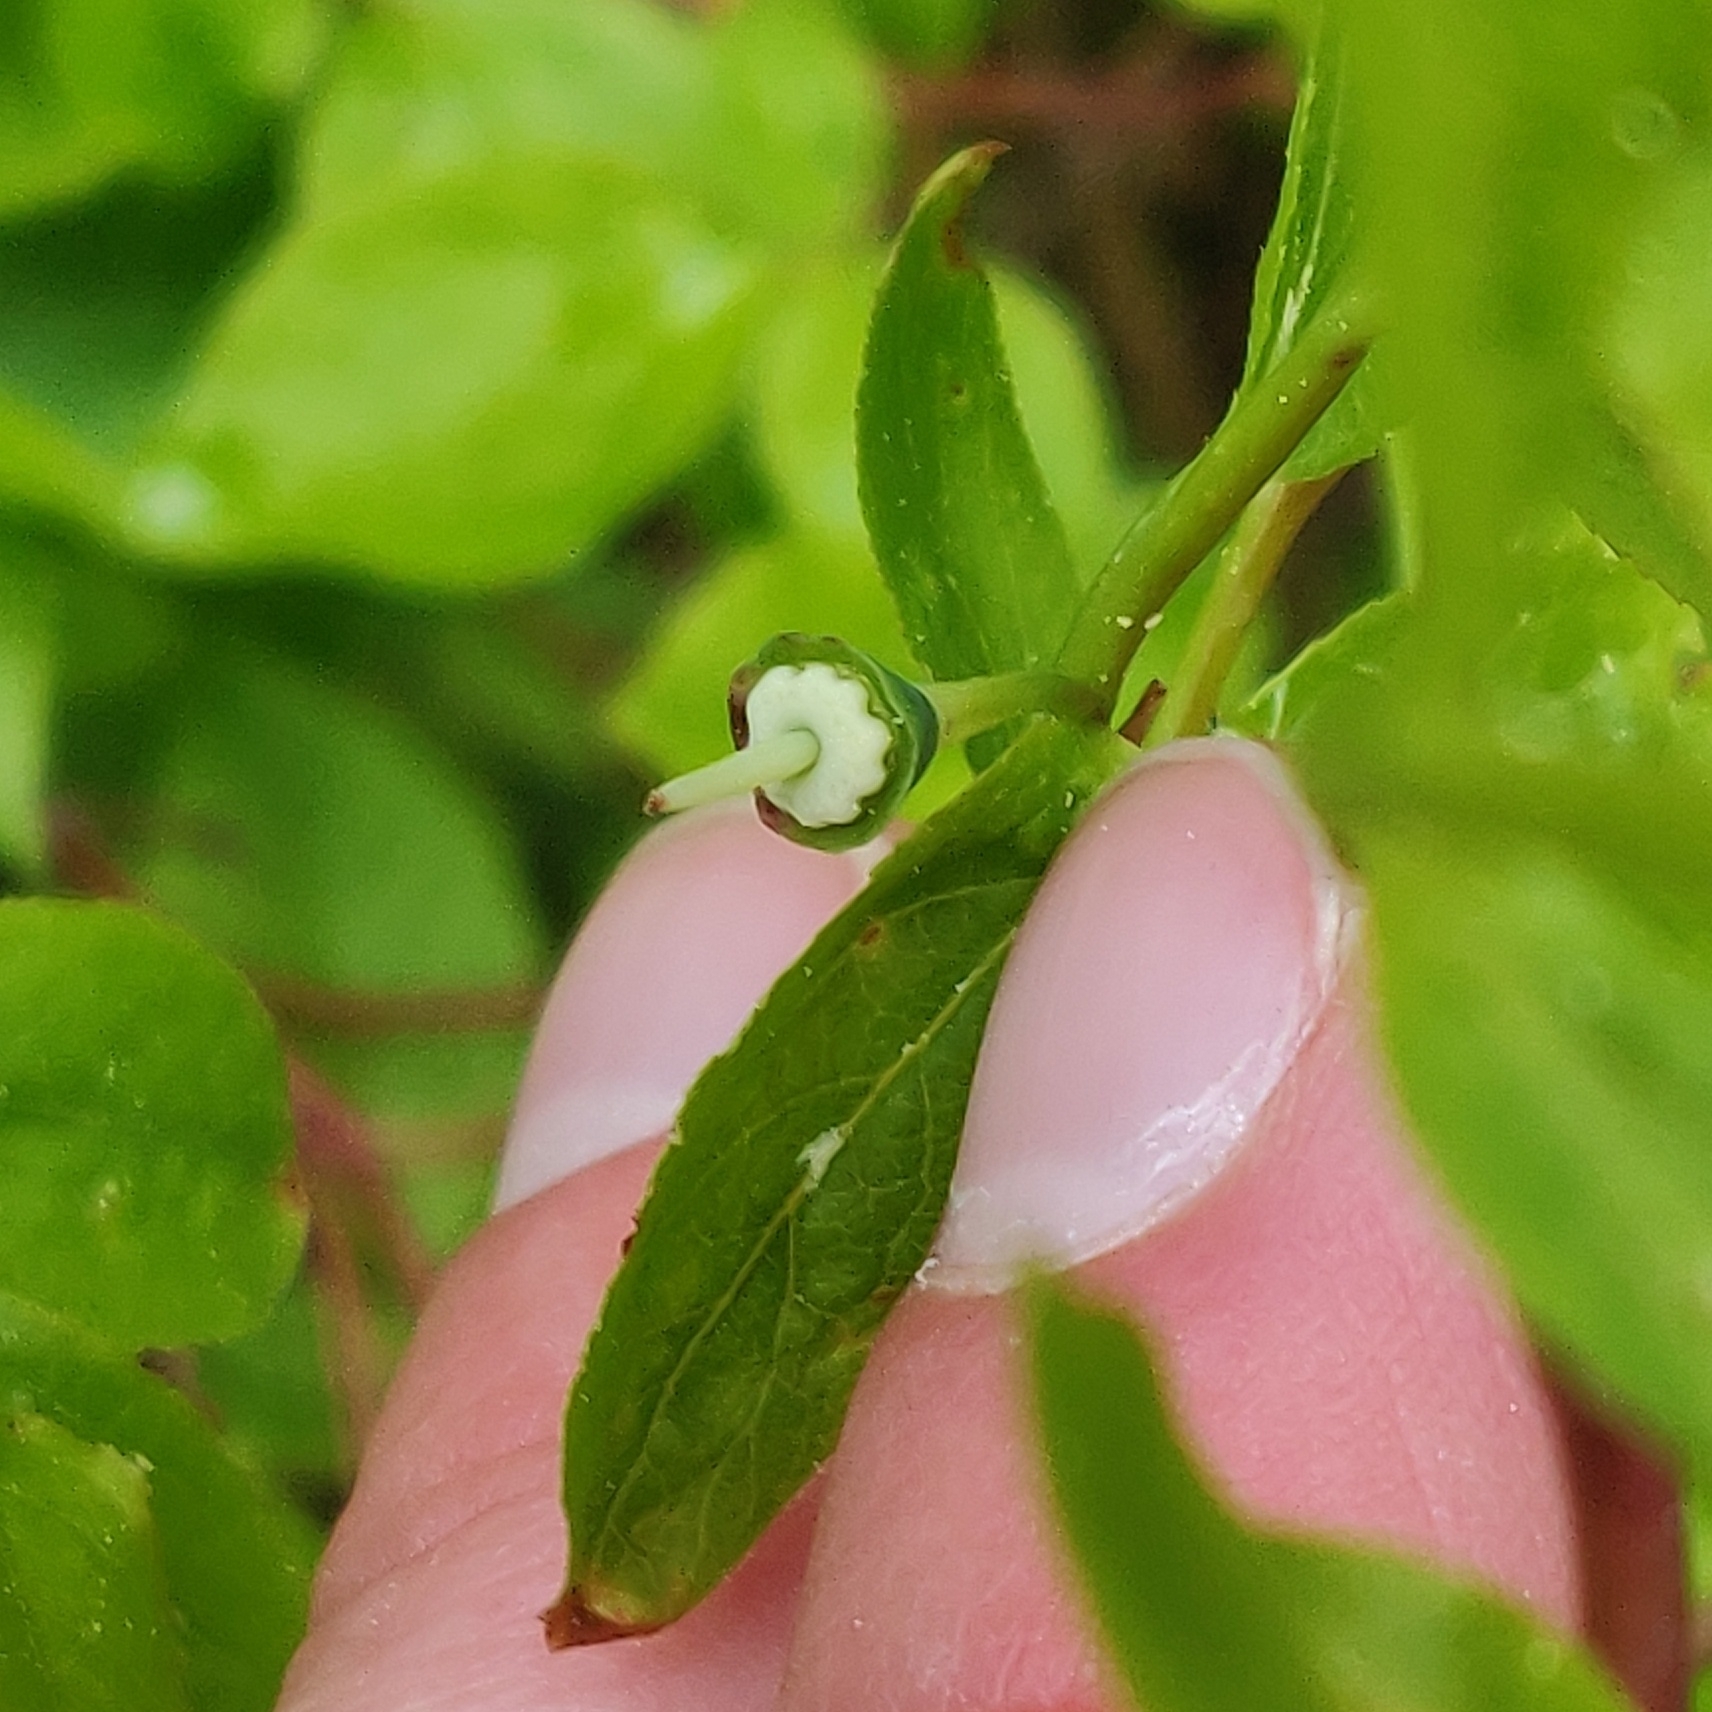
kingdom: Plantae
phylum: Tracheophyta
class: Magnoliopsida
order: Ericales
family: Ericaceae
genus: Vaccinium
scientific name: Vaccinium membranaceum
